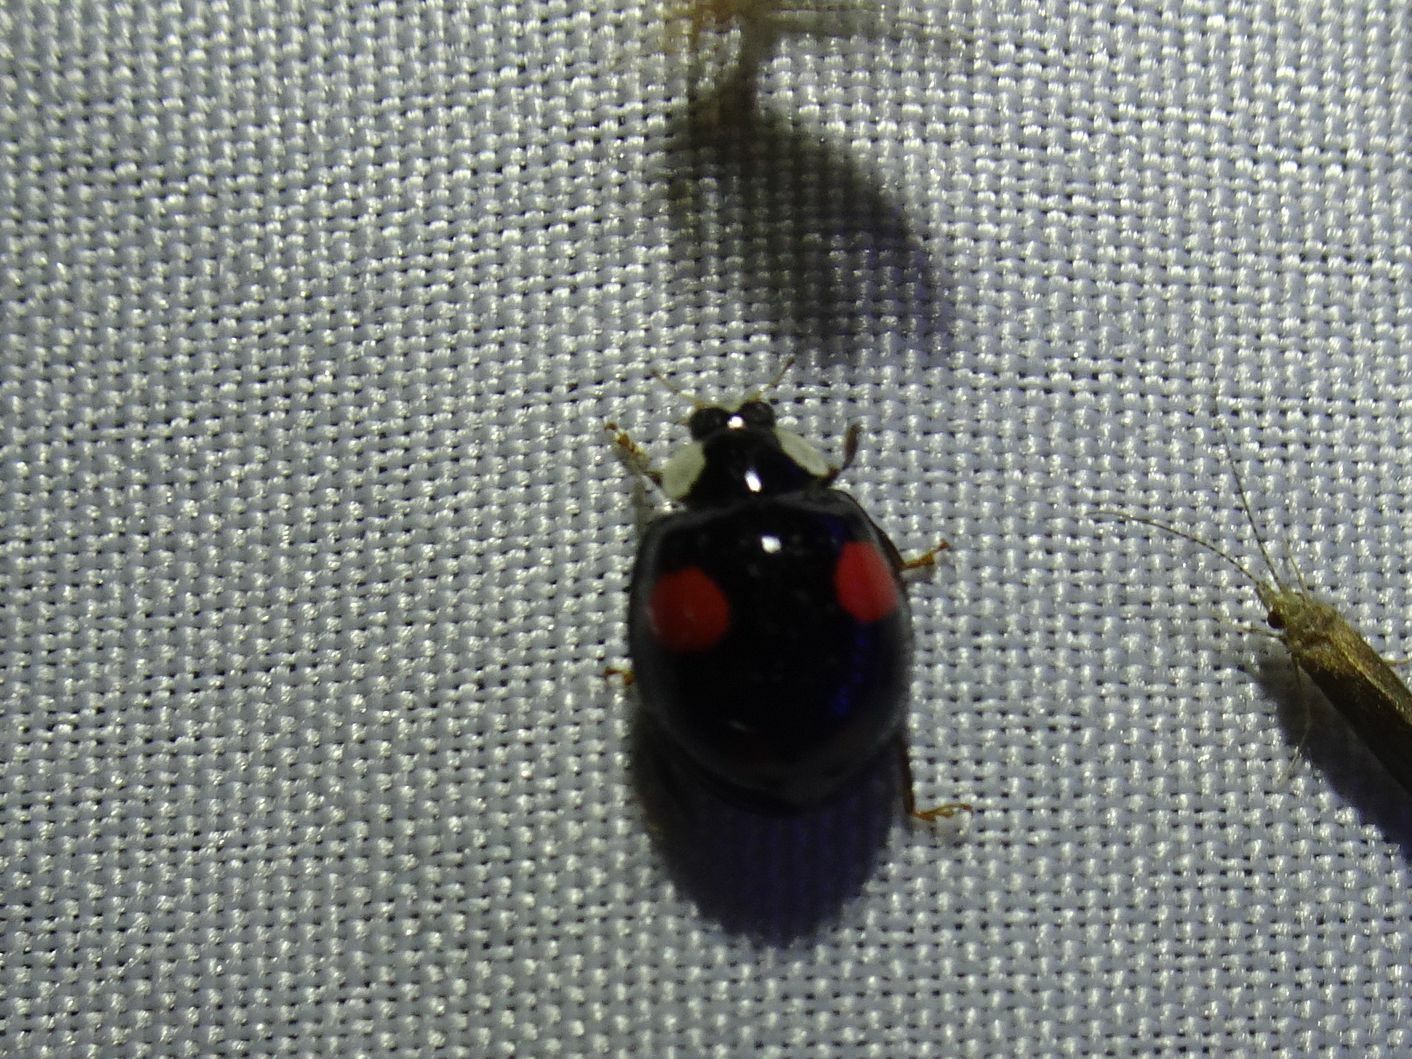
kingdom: Animalia
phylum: Arthropoda
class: Insecta
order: Coleoptera
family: Coccinellidae
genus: Harmonia
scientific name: Harmonia axyridis
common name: Harlequin ladybird
